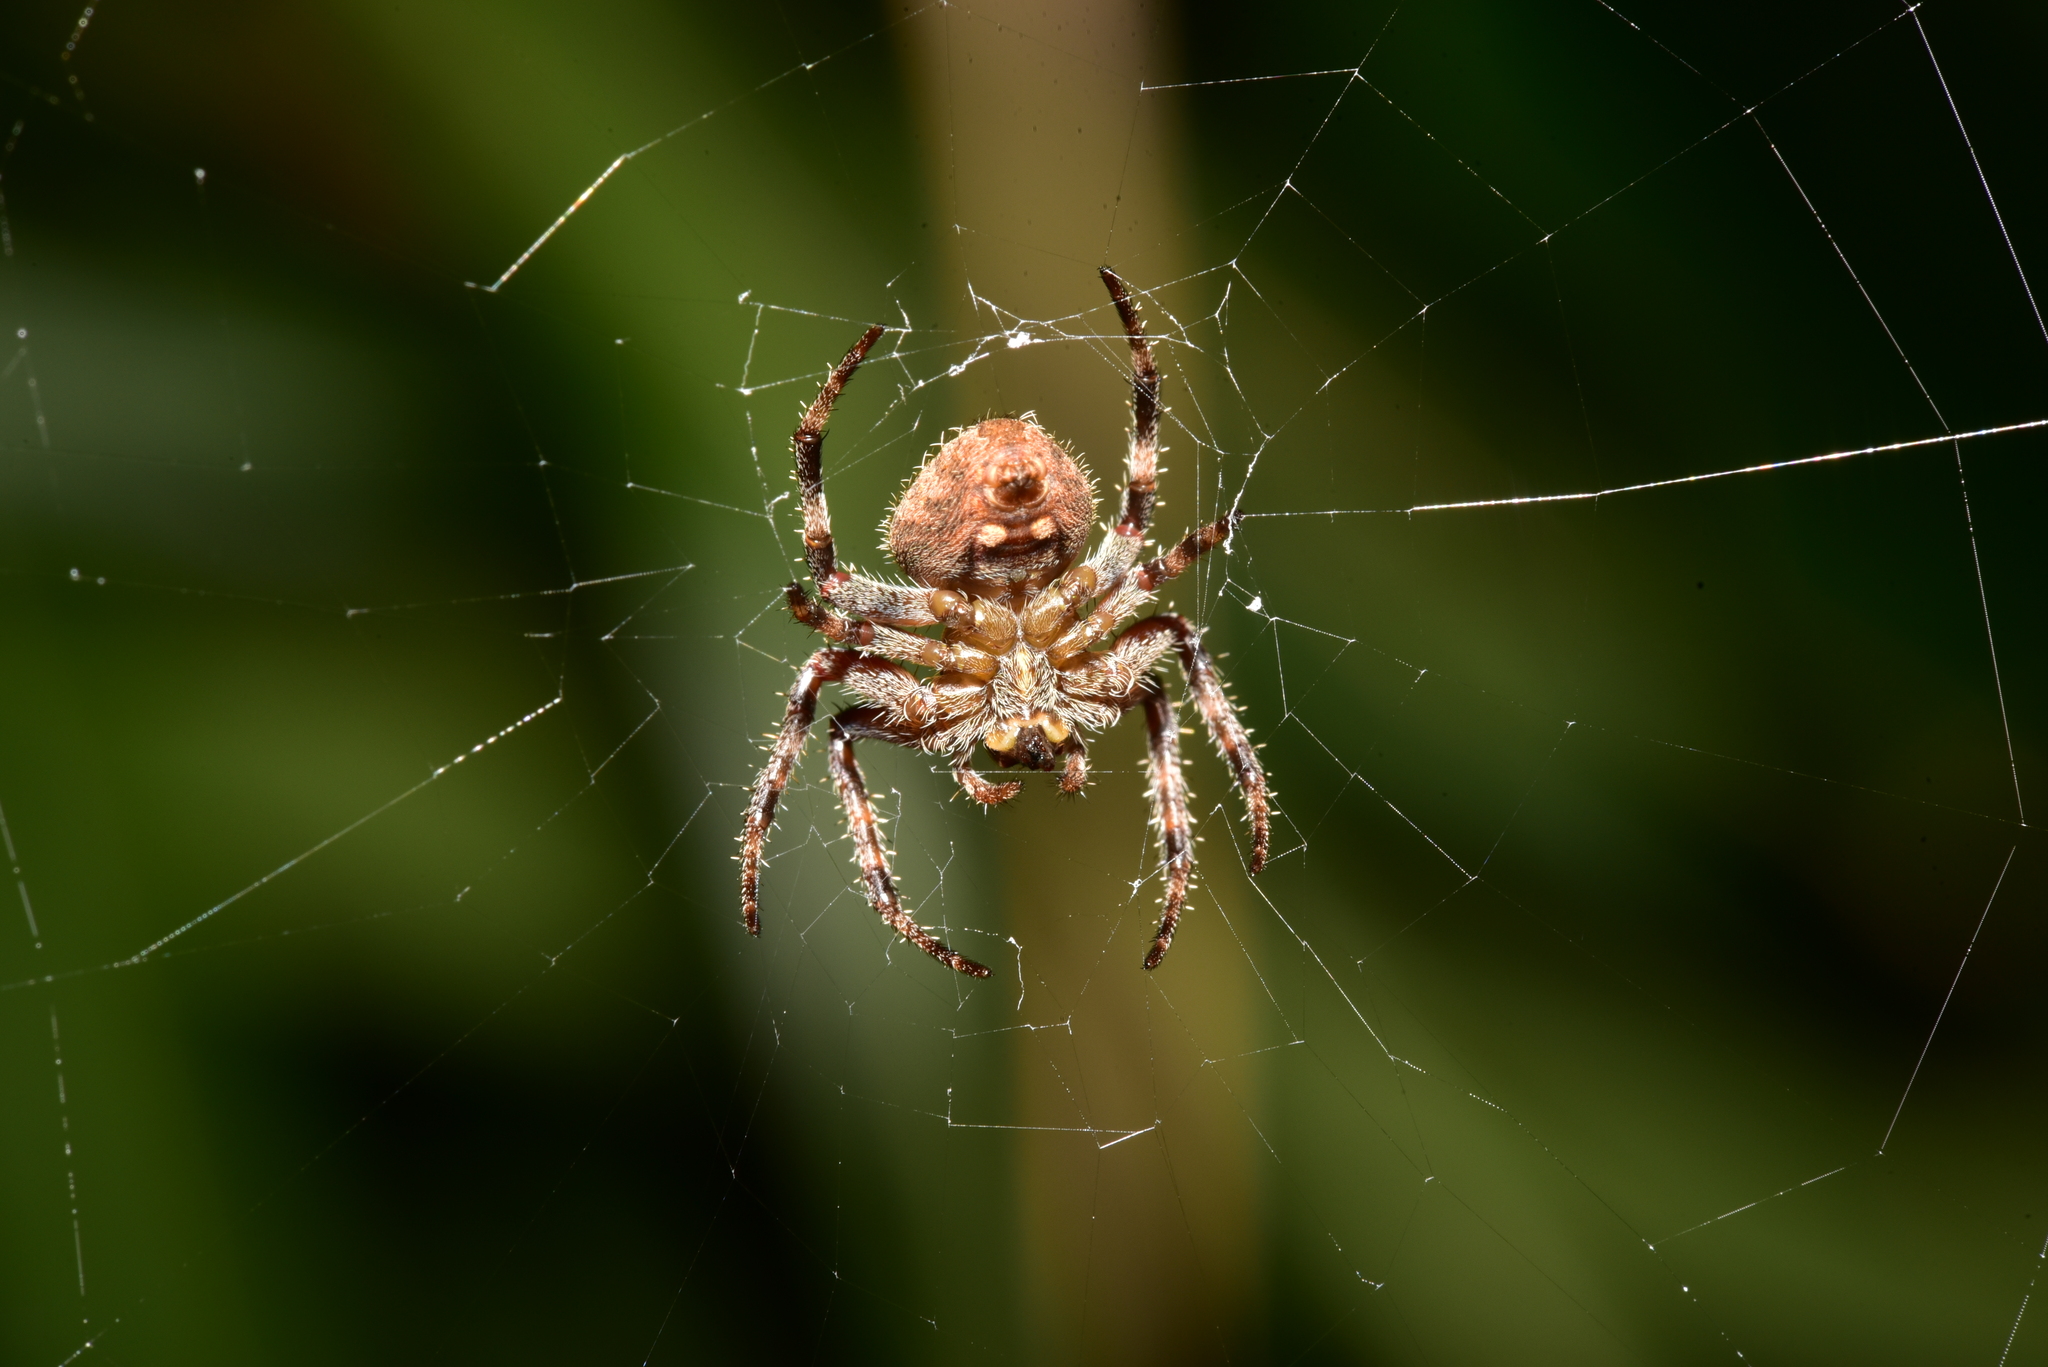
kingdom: Animalia
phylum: Arthropoda
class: Arachnida
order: Araneae
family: Araneidae
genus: Neoscona
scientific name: Neoscona nautica
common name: Orb weavers
